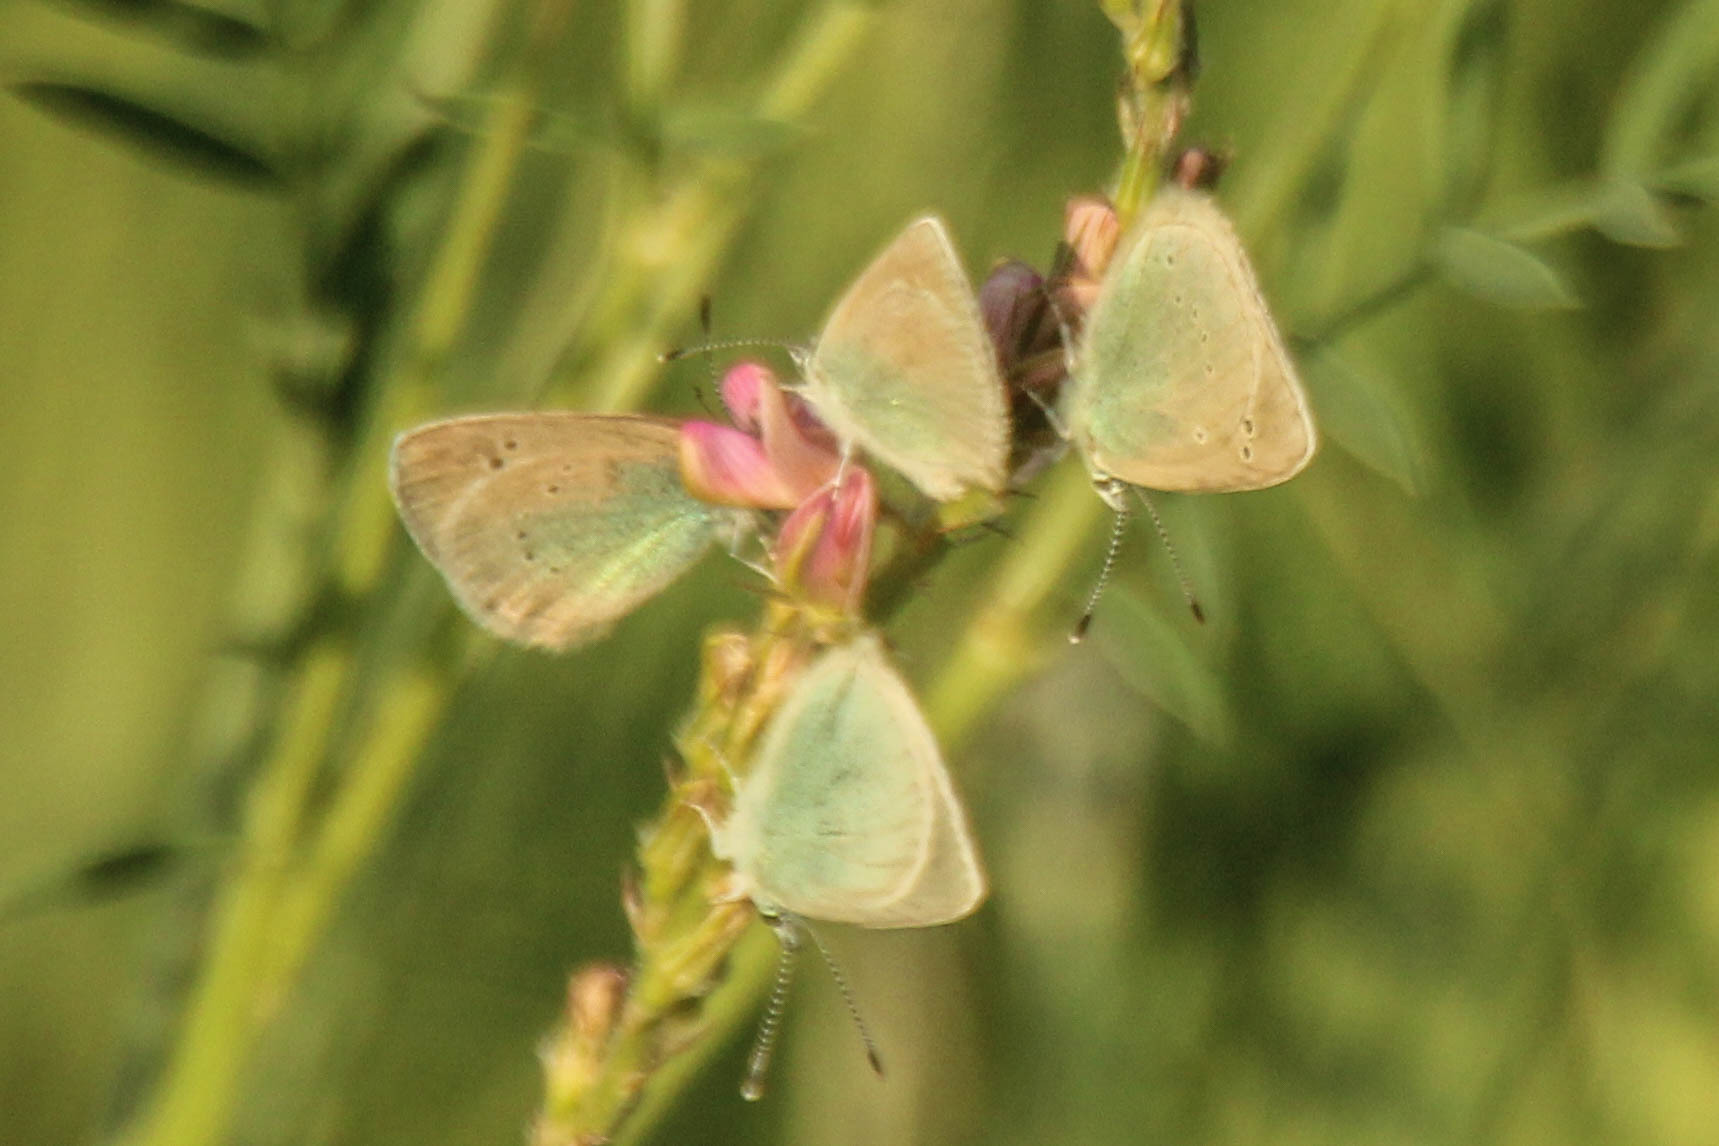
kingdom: Animalia
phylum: Arthropoda
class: Insecta
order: Lepidoptera
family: Lycaenidae
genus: Glaucopsyche
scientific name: Glaucopsyche alexis
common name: Green-underside blue
